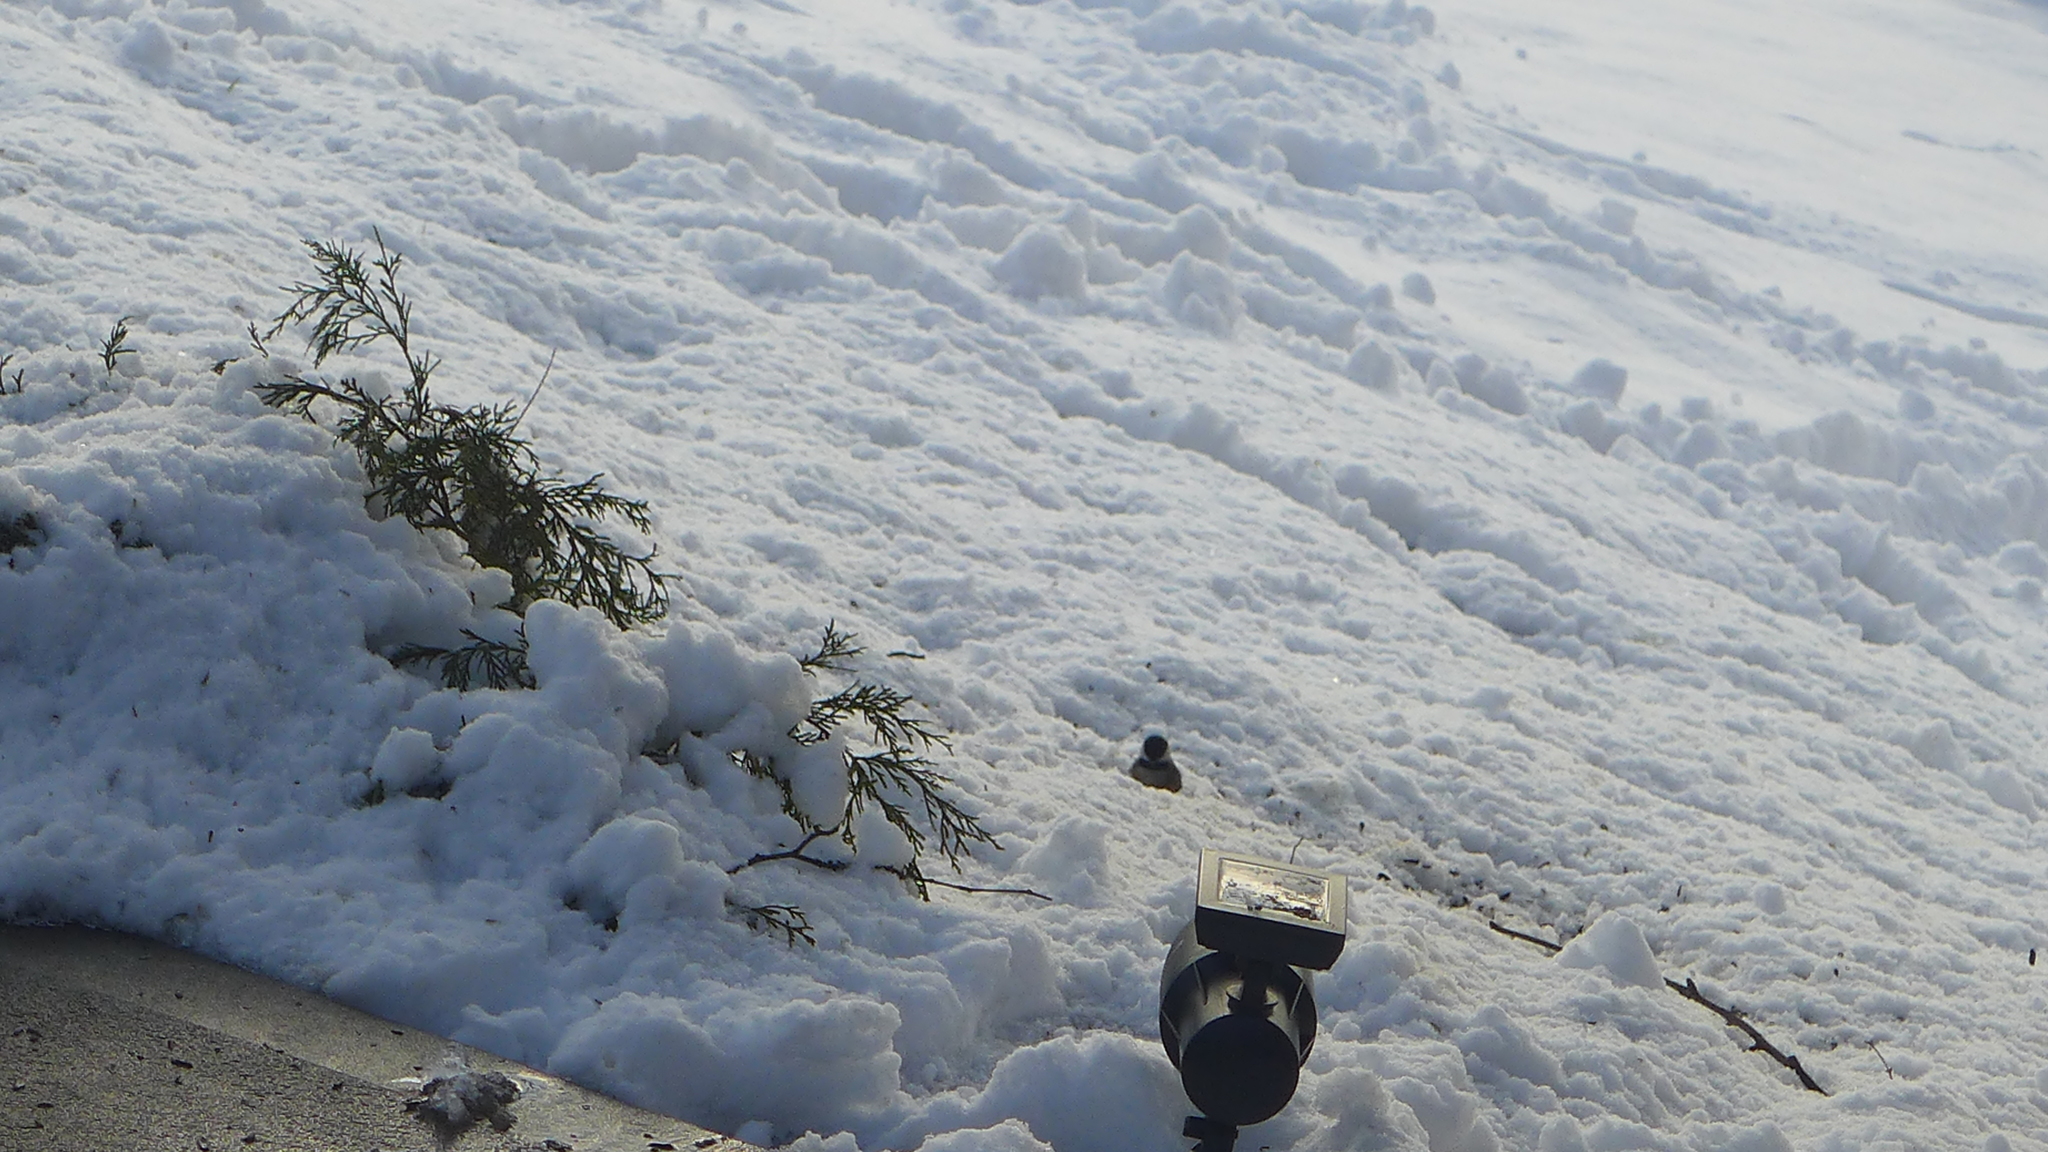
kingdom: Animalia
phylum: Chordata
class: Aves
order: Passeriformes
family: Paridae
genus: Poecile
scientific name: Poecile carolinensis
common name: Carolina chickadee
